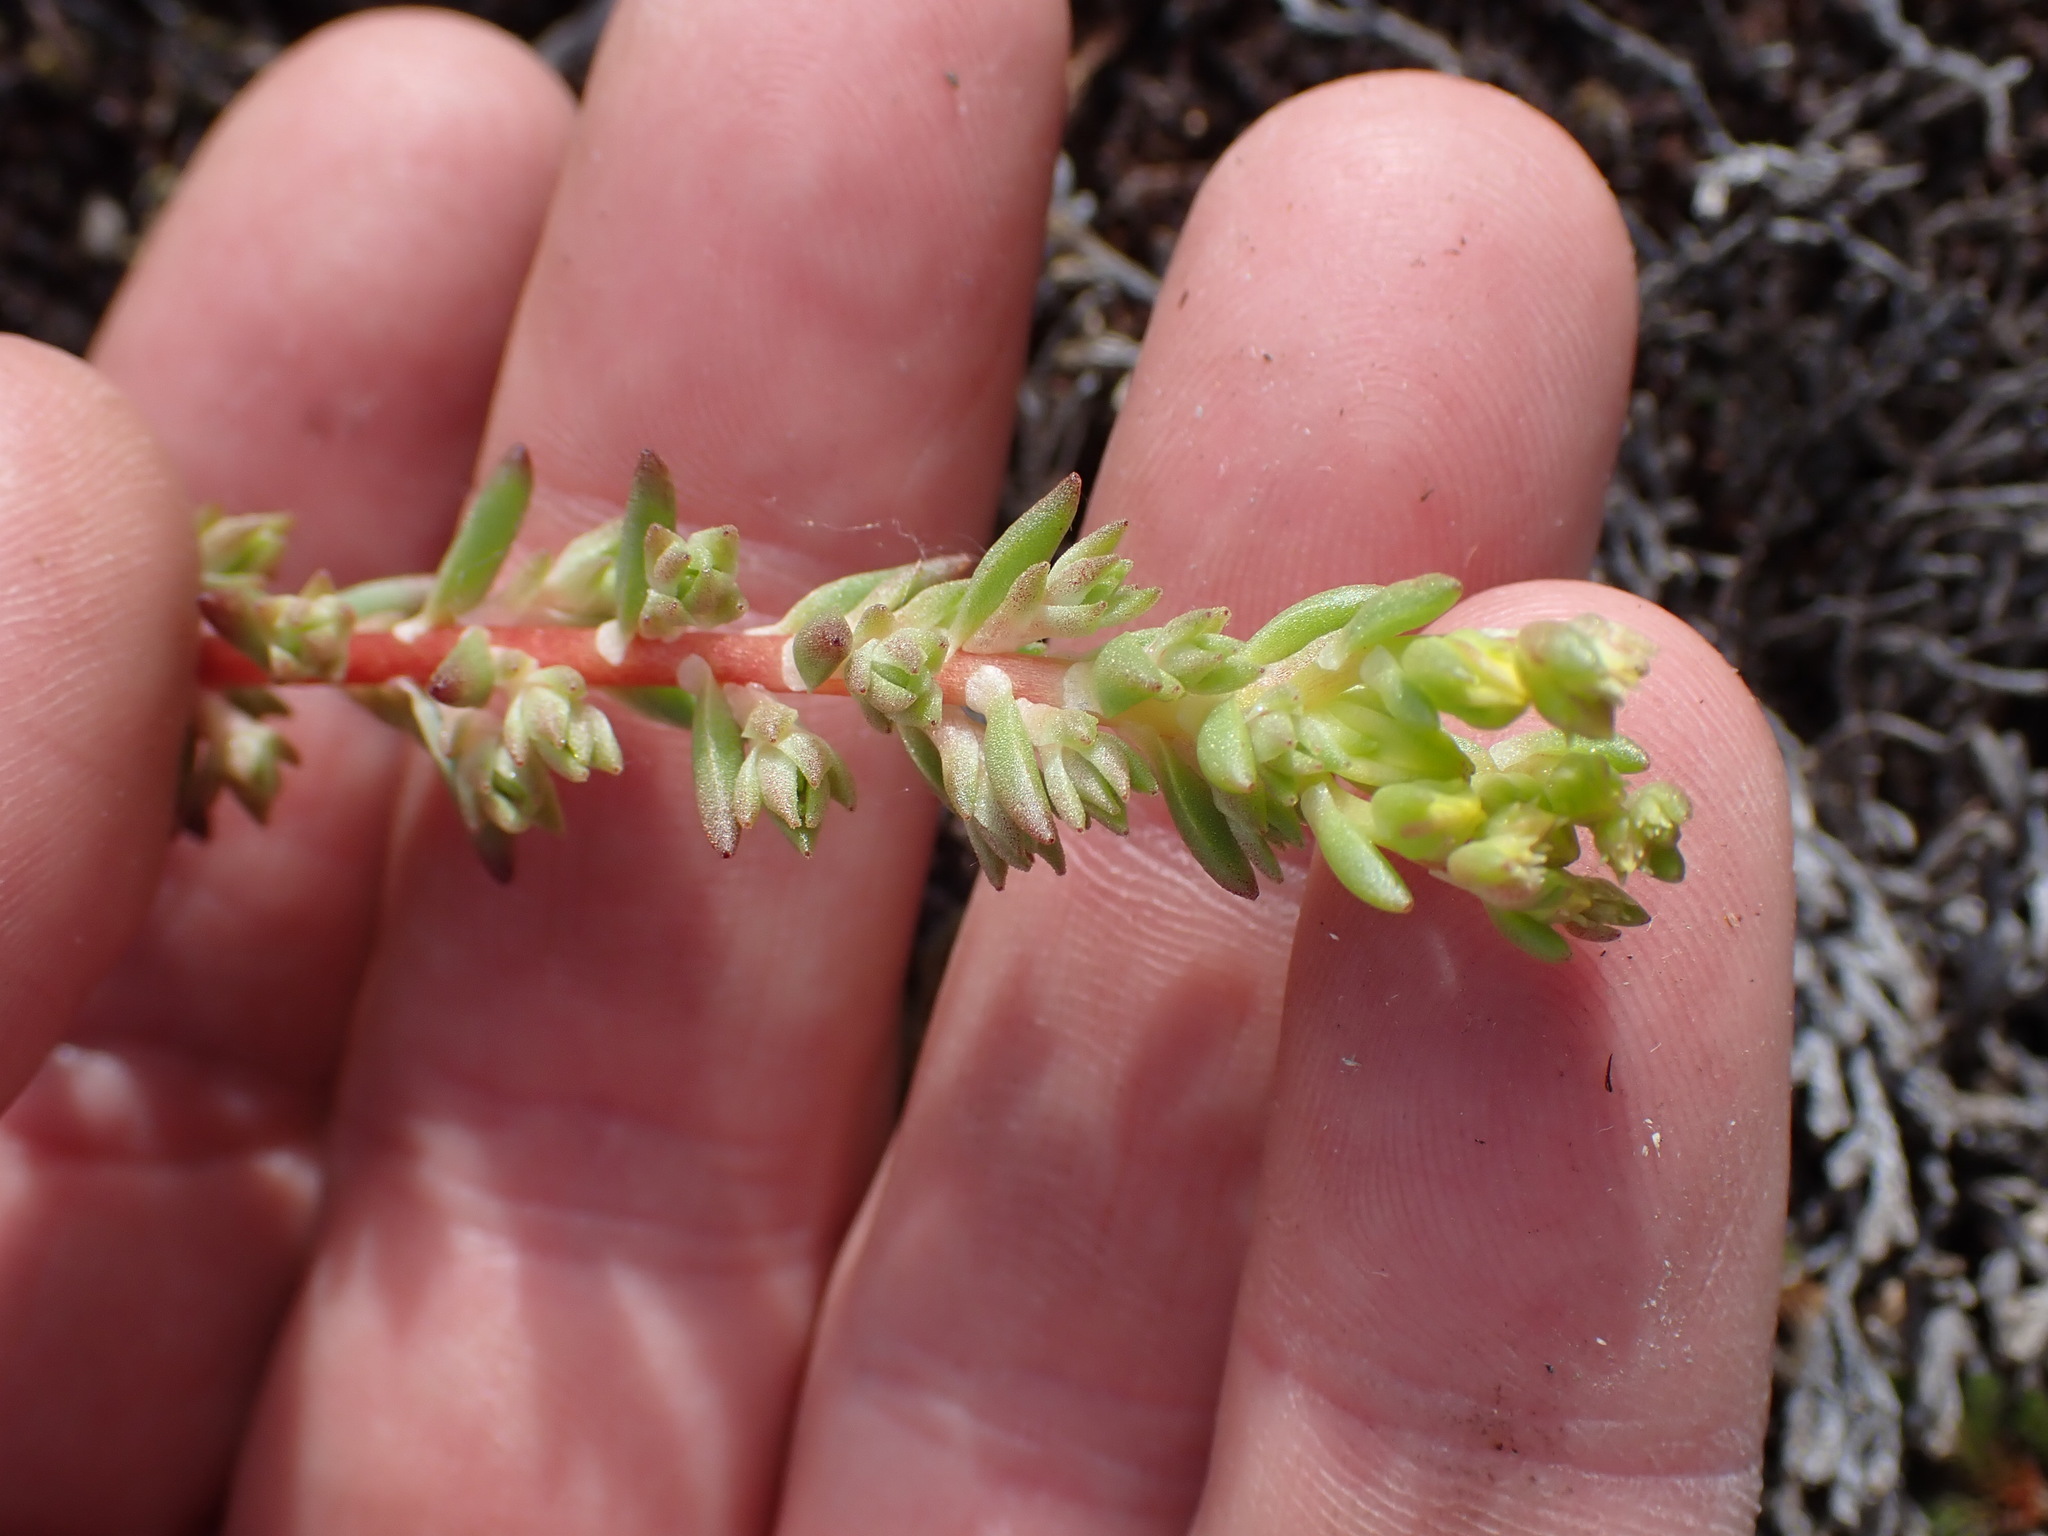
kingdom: Plantae
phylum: Tracheophyta
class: Magnoliopsida
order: Saxifragales
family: Crassulaceae
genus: Sedum
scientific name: Sedum stenopetalum
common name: Narrow-petaled stonecrop
